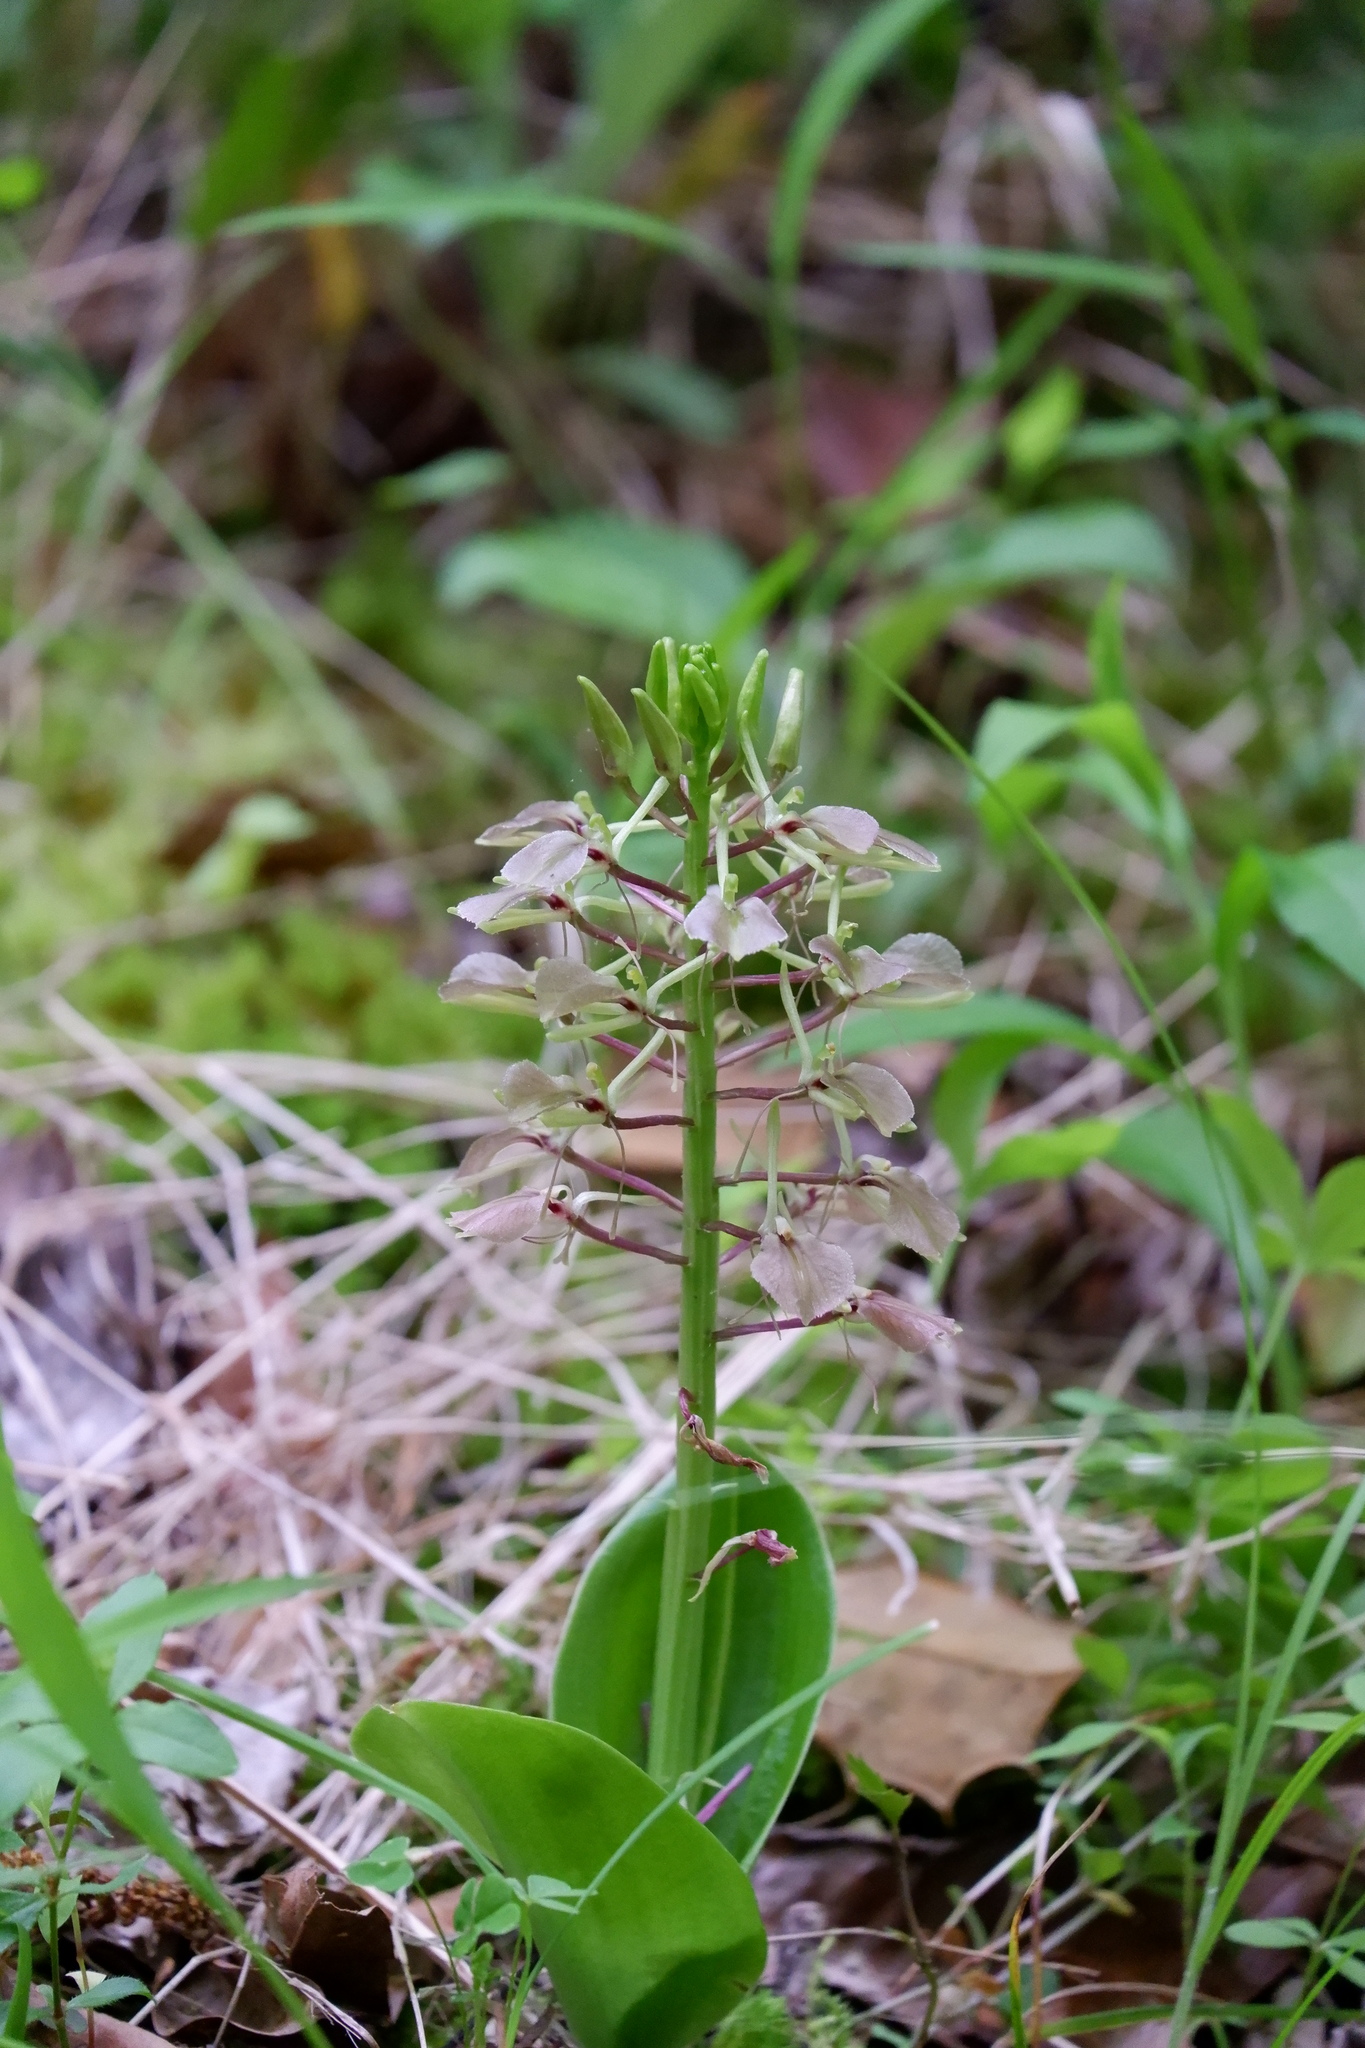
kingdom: Plantae
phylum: Tracheophyta
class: Liliopsida
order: Asparagales
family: Orchidaceae
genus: Liparis
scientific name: Liparis liliifolia
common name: Brown wide-lip orchid
